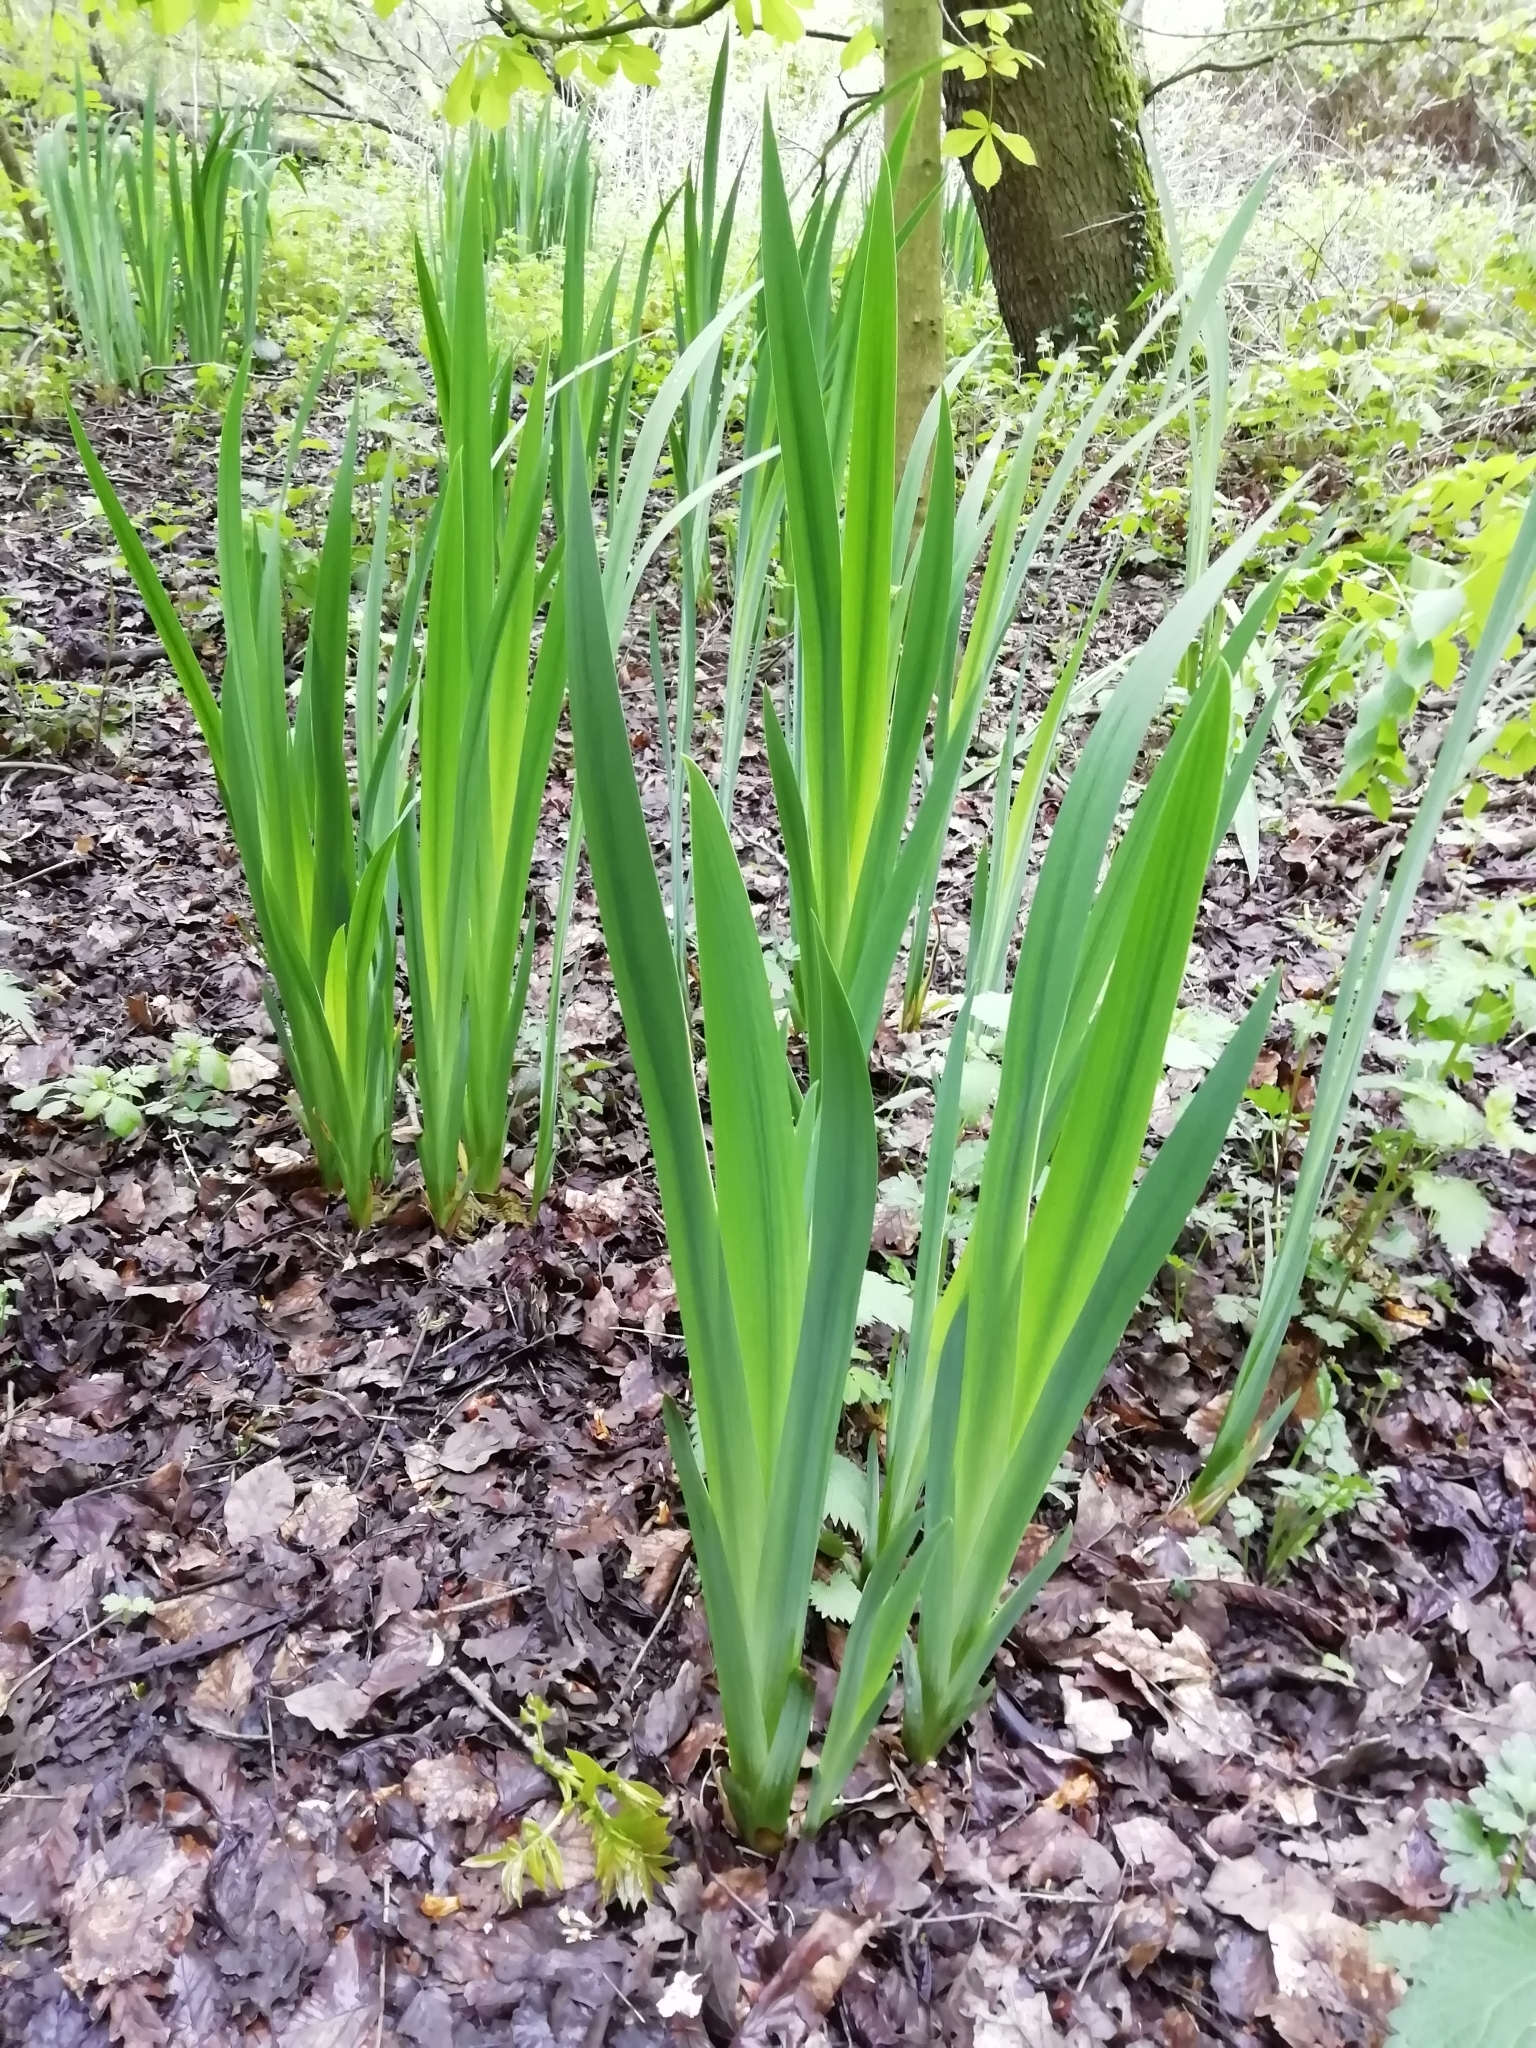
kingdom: Plantae
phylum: Tracheophyta
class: Liliopsida
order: Asparagales
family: Iridaceae
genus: Iris
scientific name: Iris pseudacorus
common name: Yellow flag
